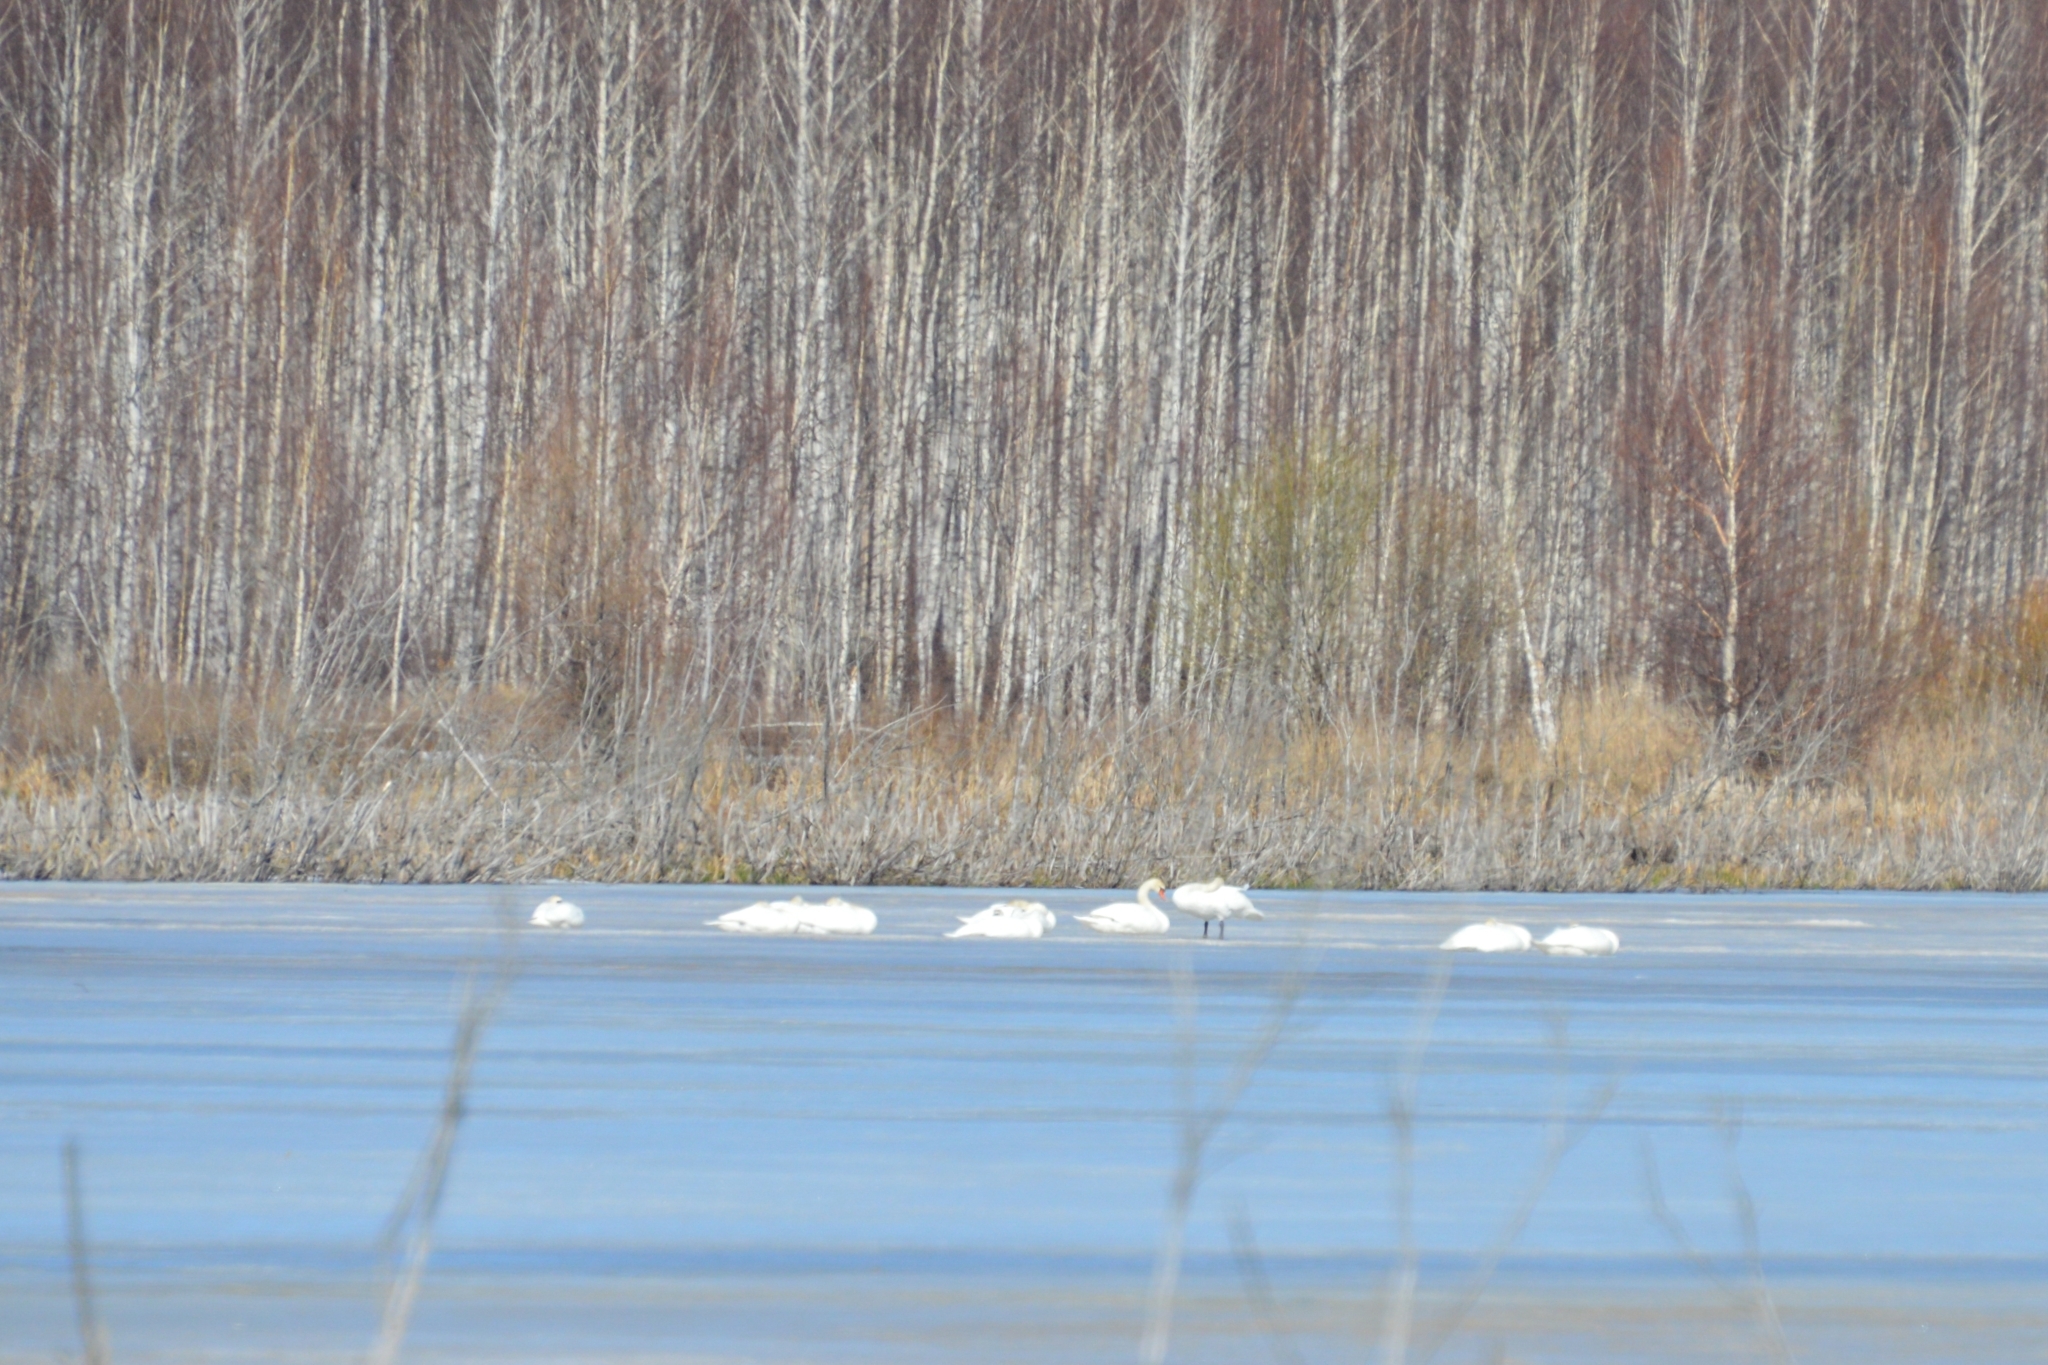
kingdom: Animalia
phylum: Chordata
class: Aves
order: Anseriformes
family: Anatidae
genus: Cygnus
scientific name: Cygnus olor
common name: Mute swan
